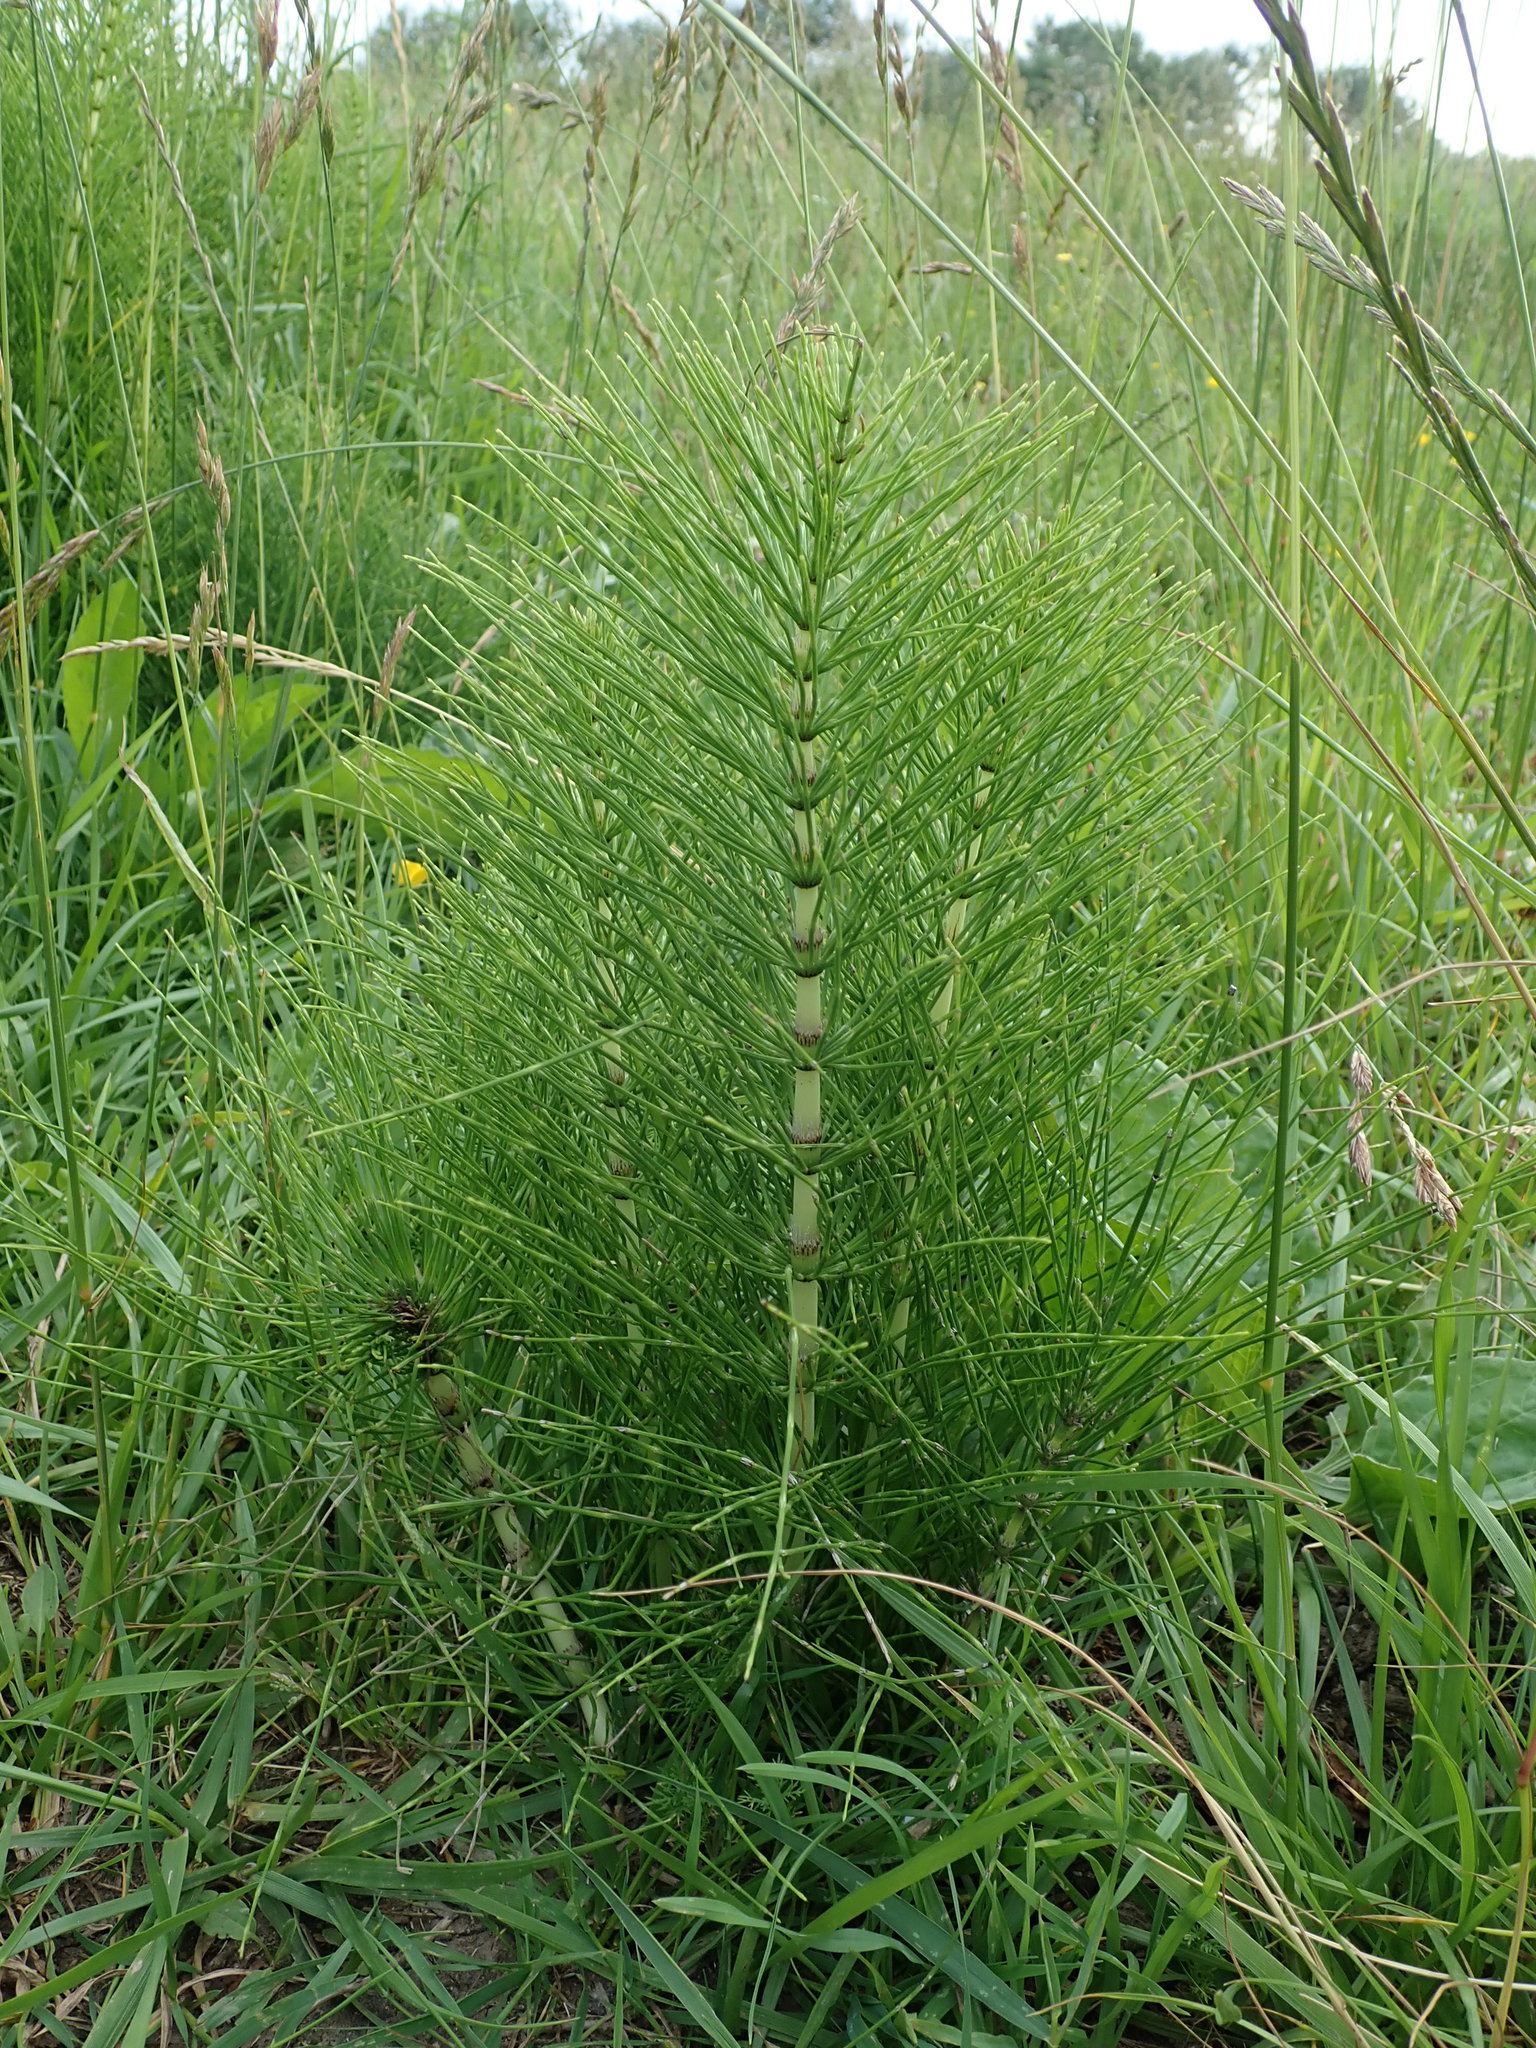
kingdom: Plantae
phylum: Tracheophyta
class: Polypodiopsida
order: Equisetales
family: Equisetaceae
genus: Equisetum
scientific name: Equisetum telmateia
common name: Great horsetail
